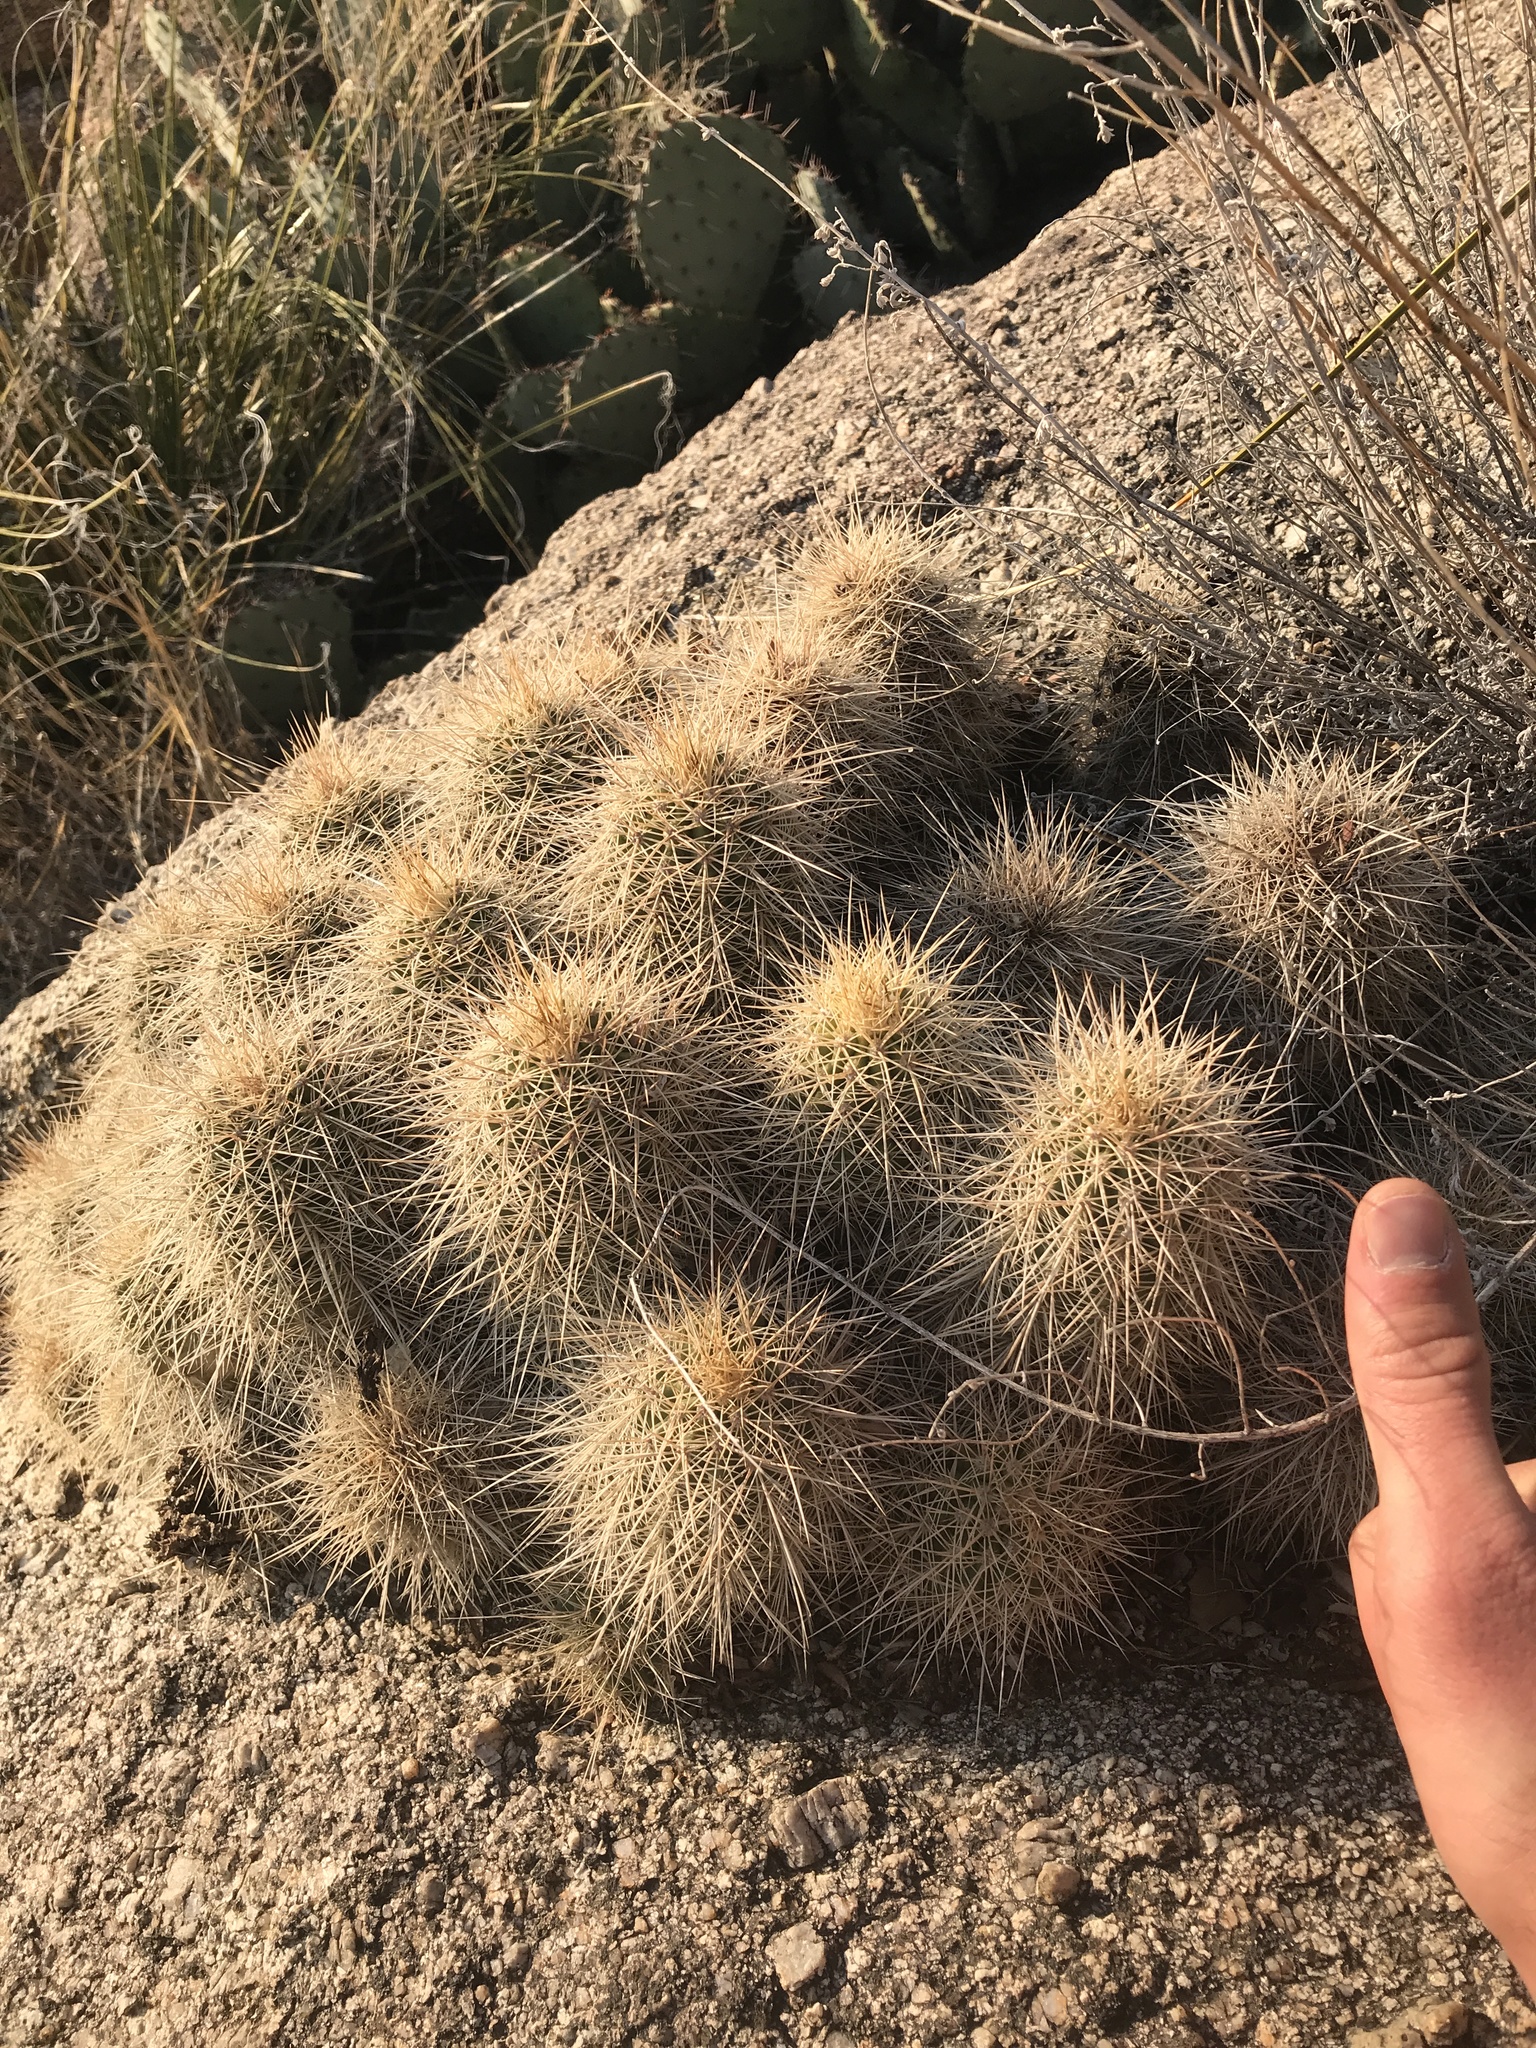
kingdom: Plantae
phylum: Tracheophyta
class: Magnoliopsida
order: Caryophyllales
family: Cactaceae
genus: Echinocereus
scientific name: Echinocereus coccineus
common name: Scarlet hedgehog cactus
